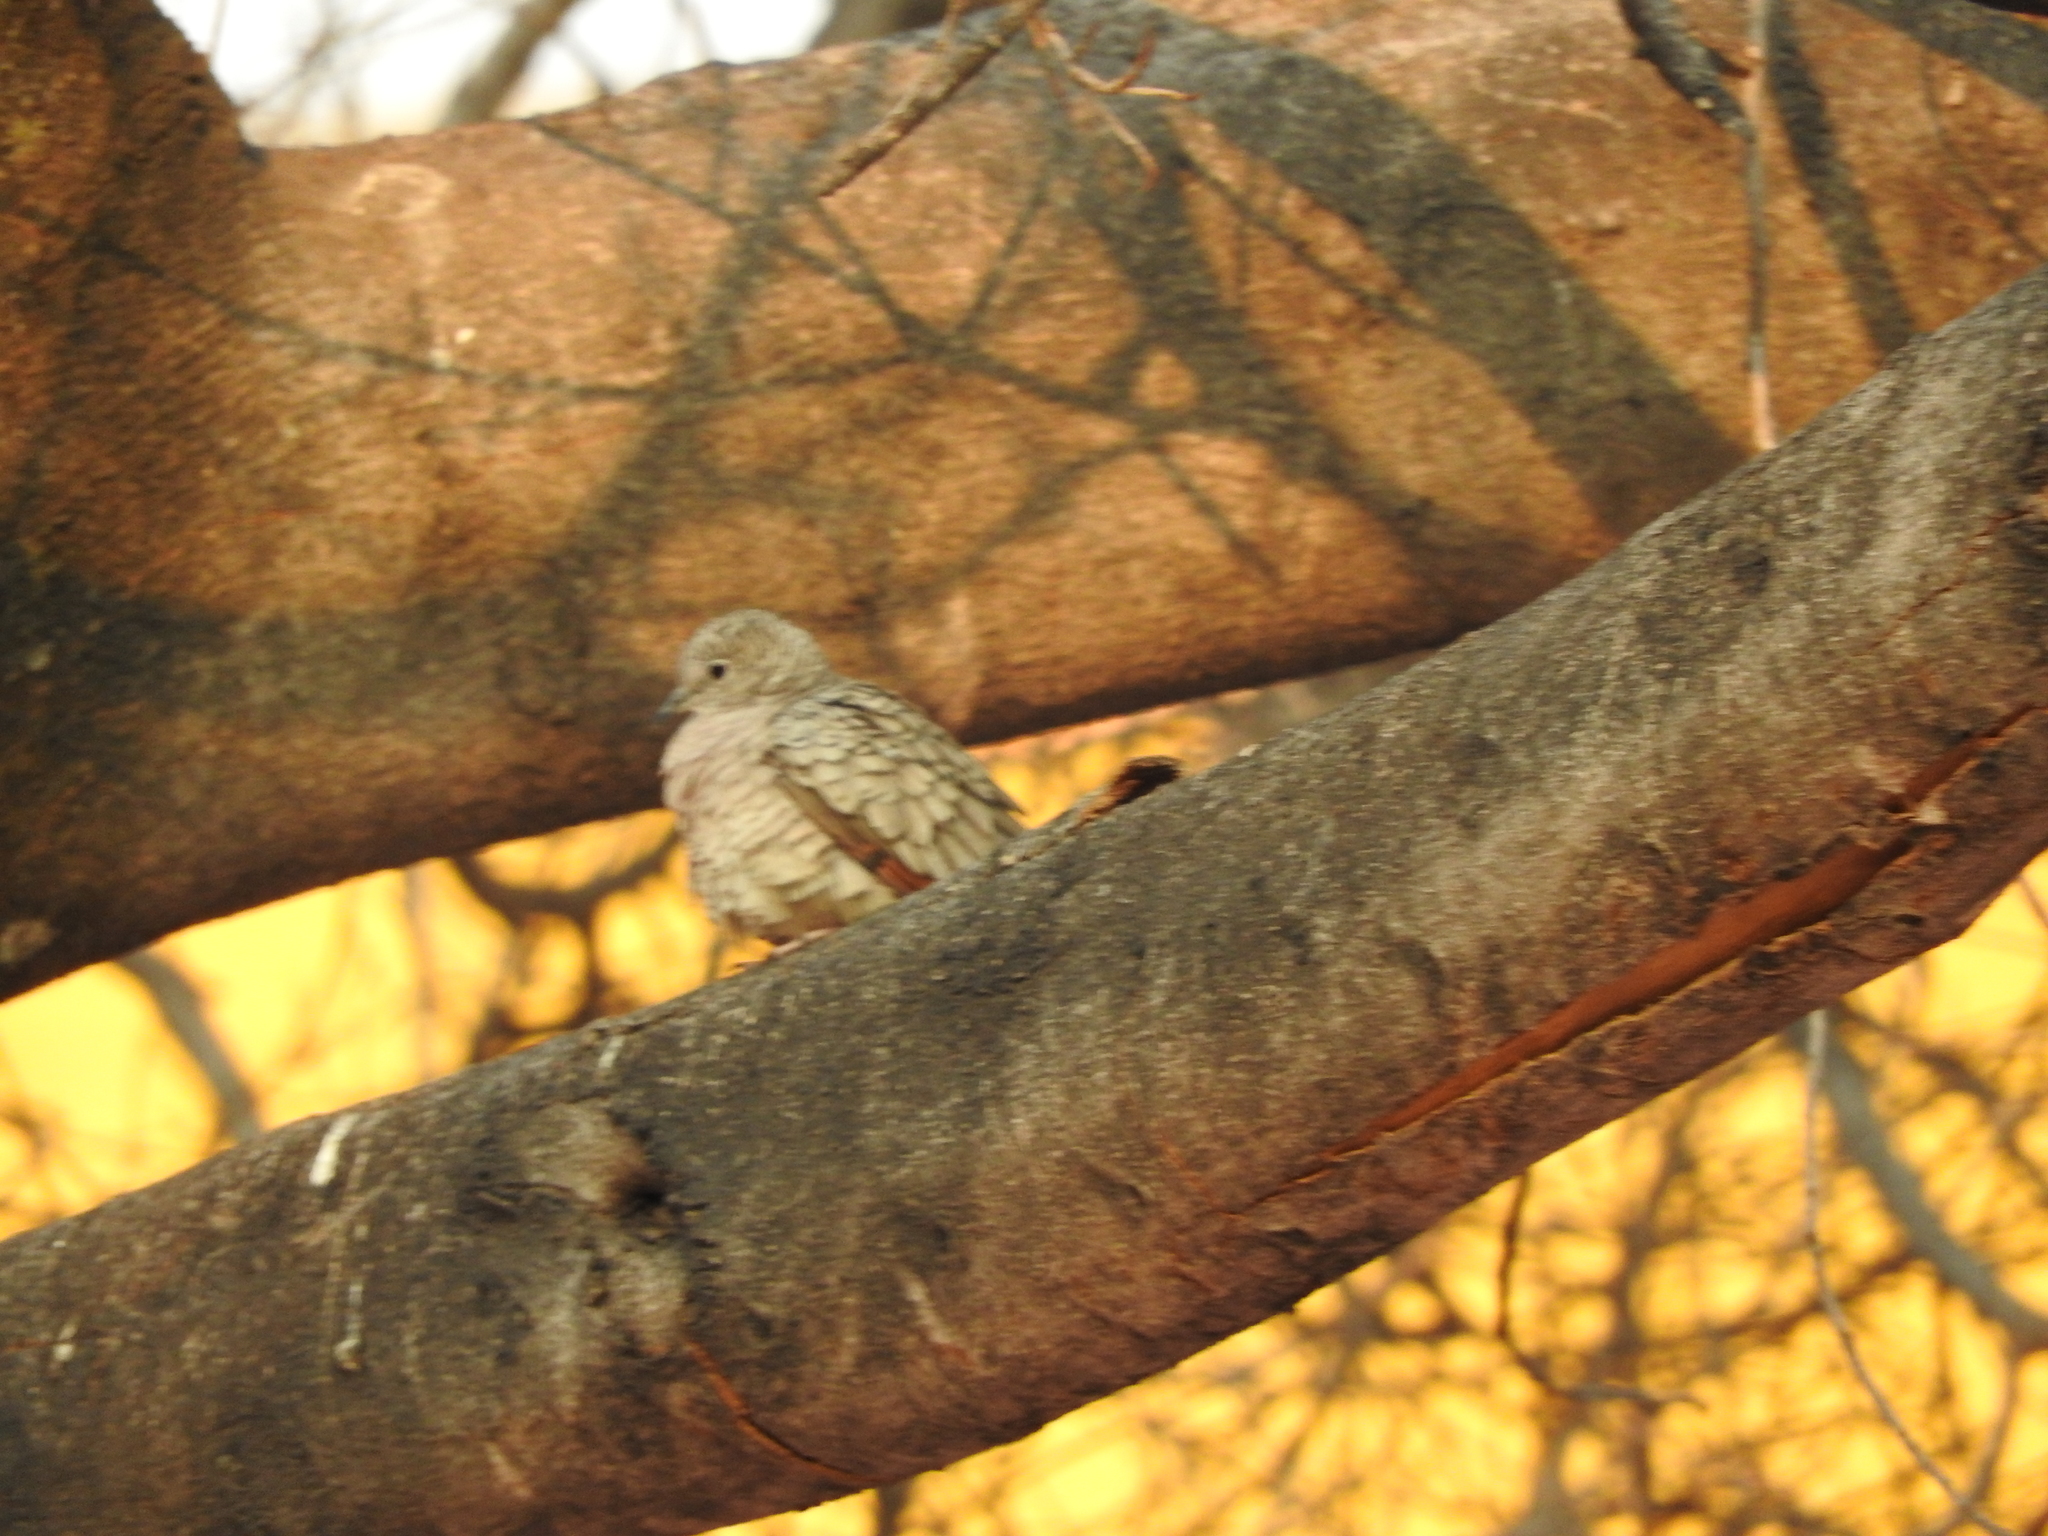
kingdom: Animalia
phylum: Chordata
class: Aves
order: Columbiformes
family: Columbidae
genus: Columbina
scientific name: Columbina inca
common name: Inca dove
